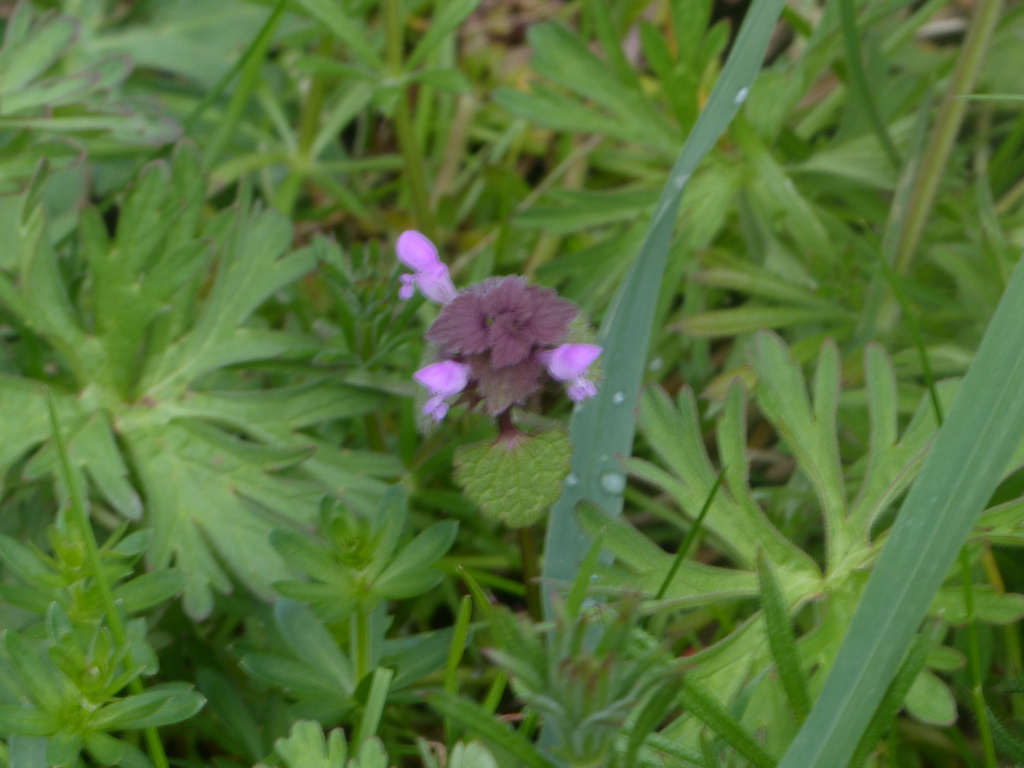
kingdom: Plantae
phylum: Tracheophyta
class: Magnoliopsida
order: Lamiales
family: Lamiaceae
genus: Lamium
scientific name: Lamium purpureum
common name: Red dead-nettle
